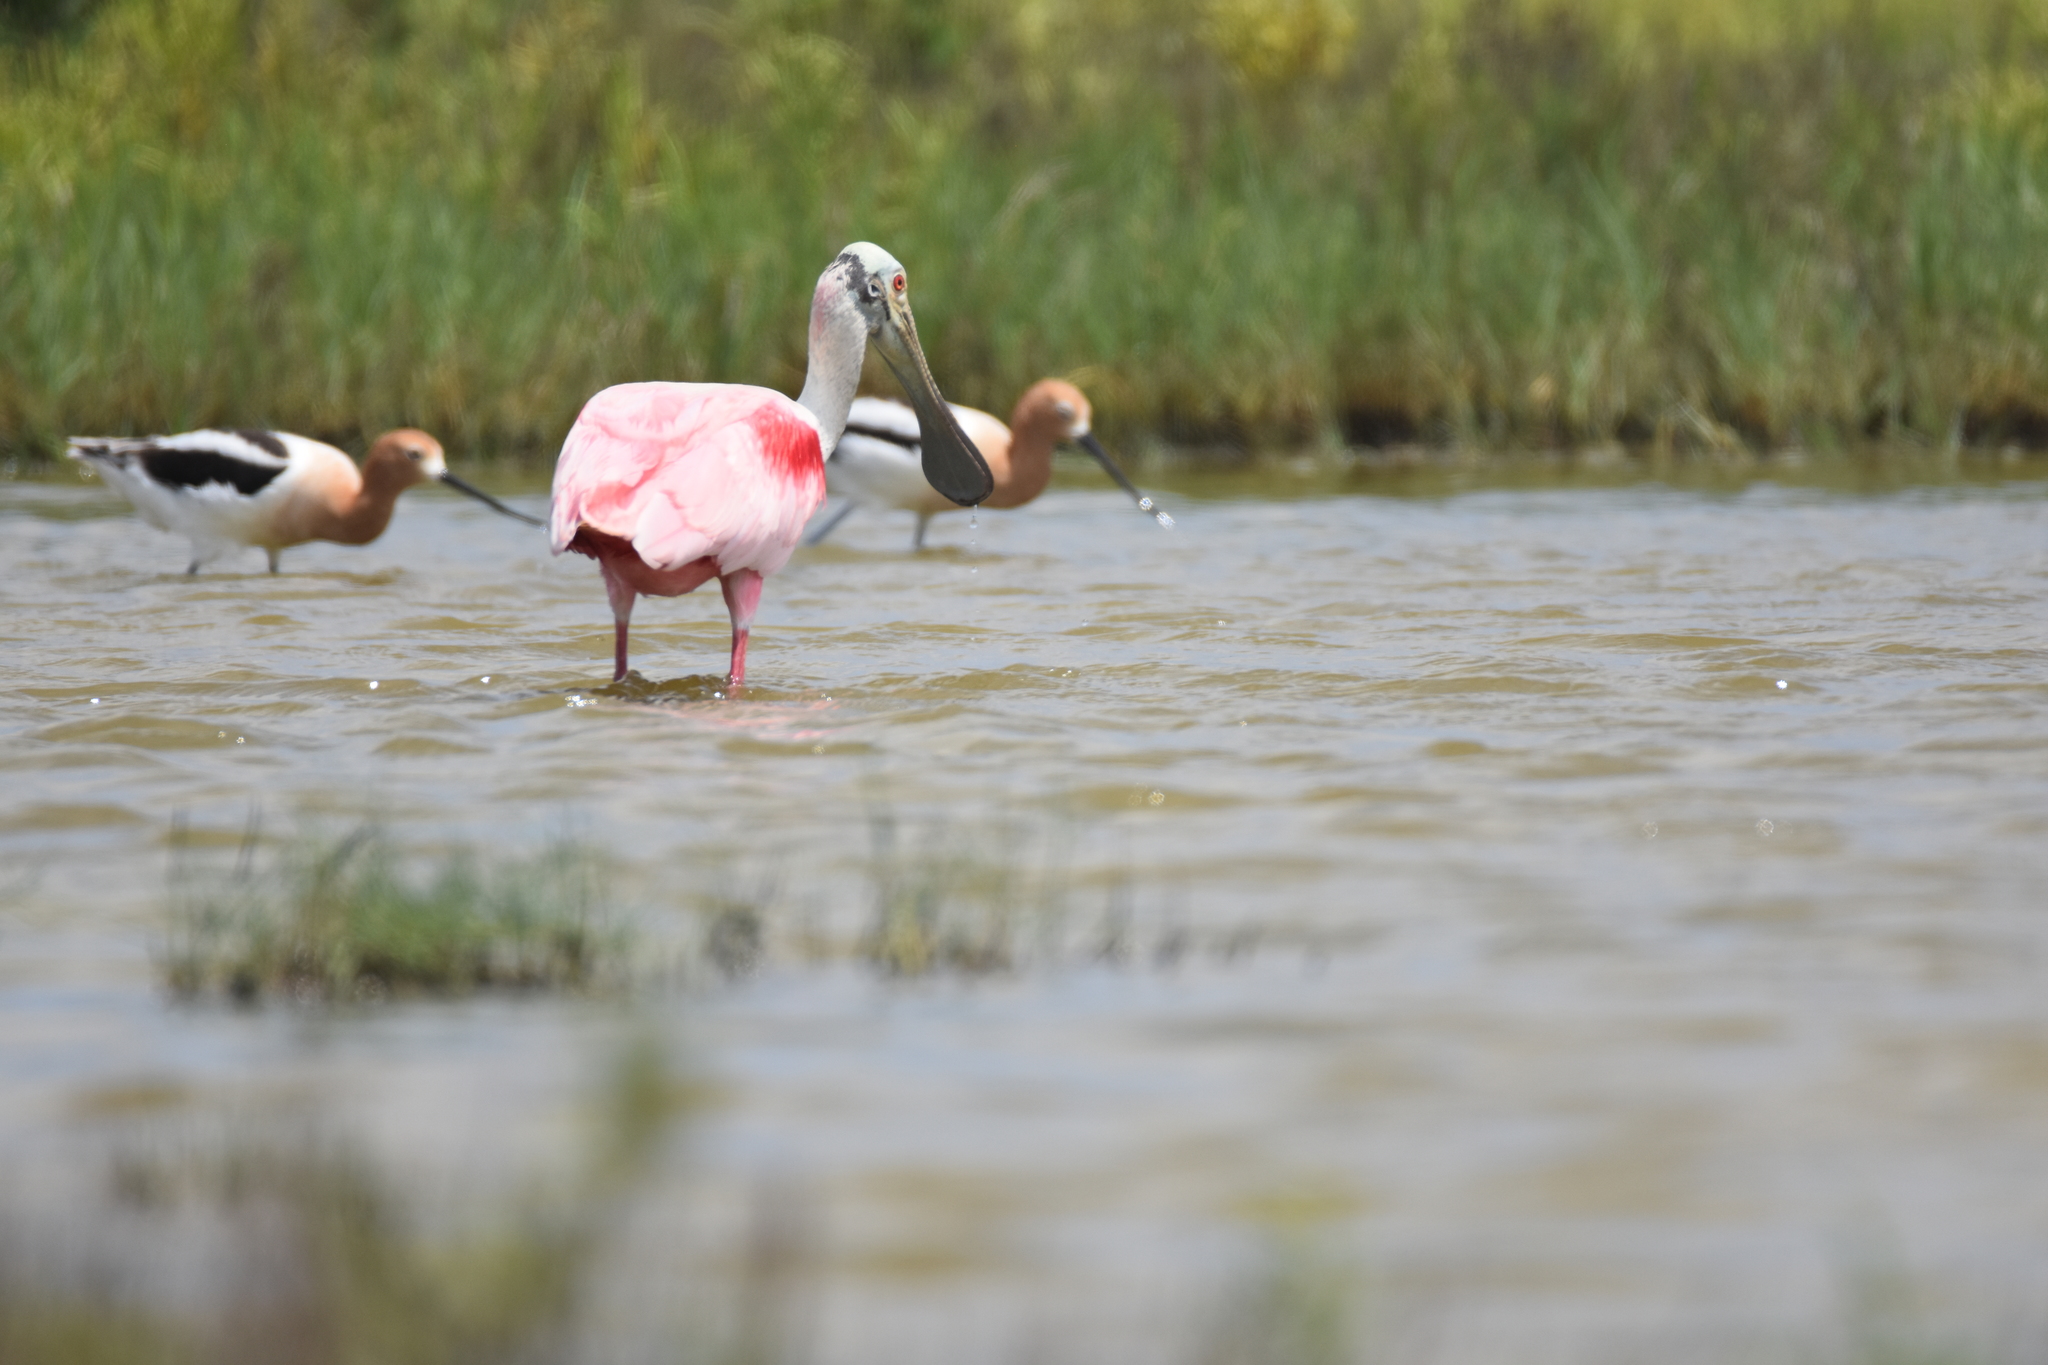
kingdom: Animalia
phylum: Chordata
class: Aves
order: Charadriiformes
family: Recurvirostridae
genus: Recurvirostra
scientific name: Recurvirostra americana
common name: American avocet
